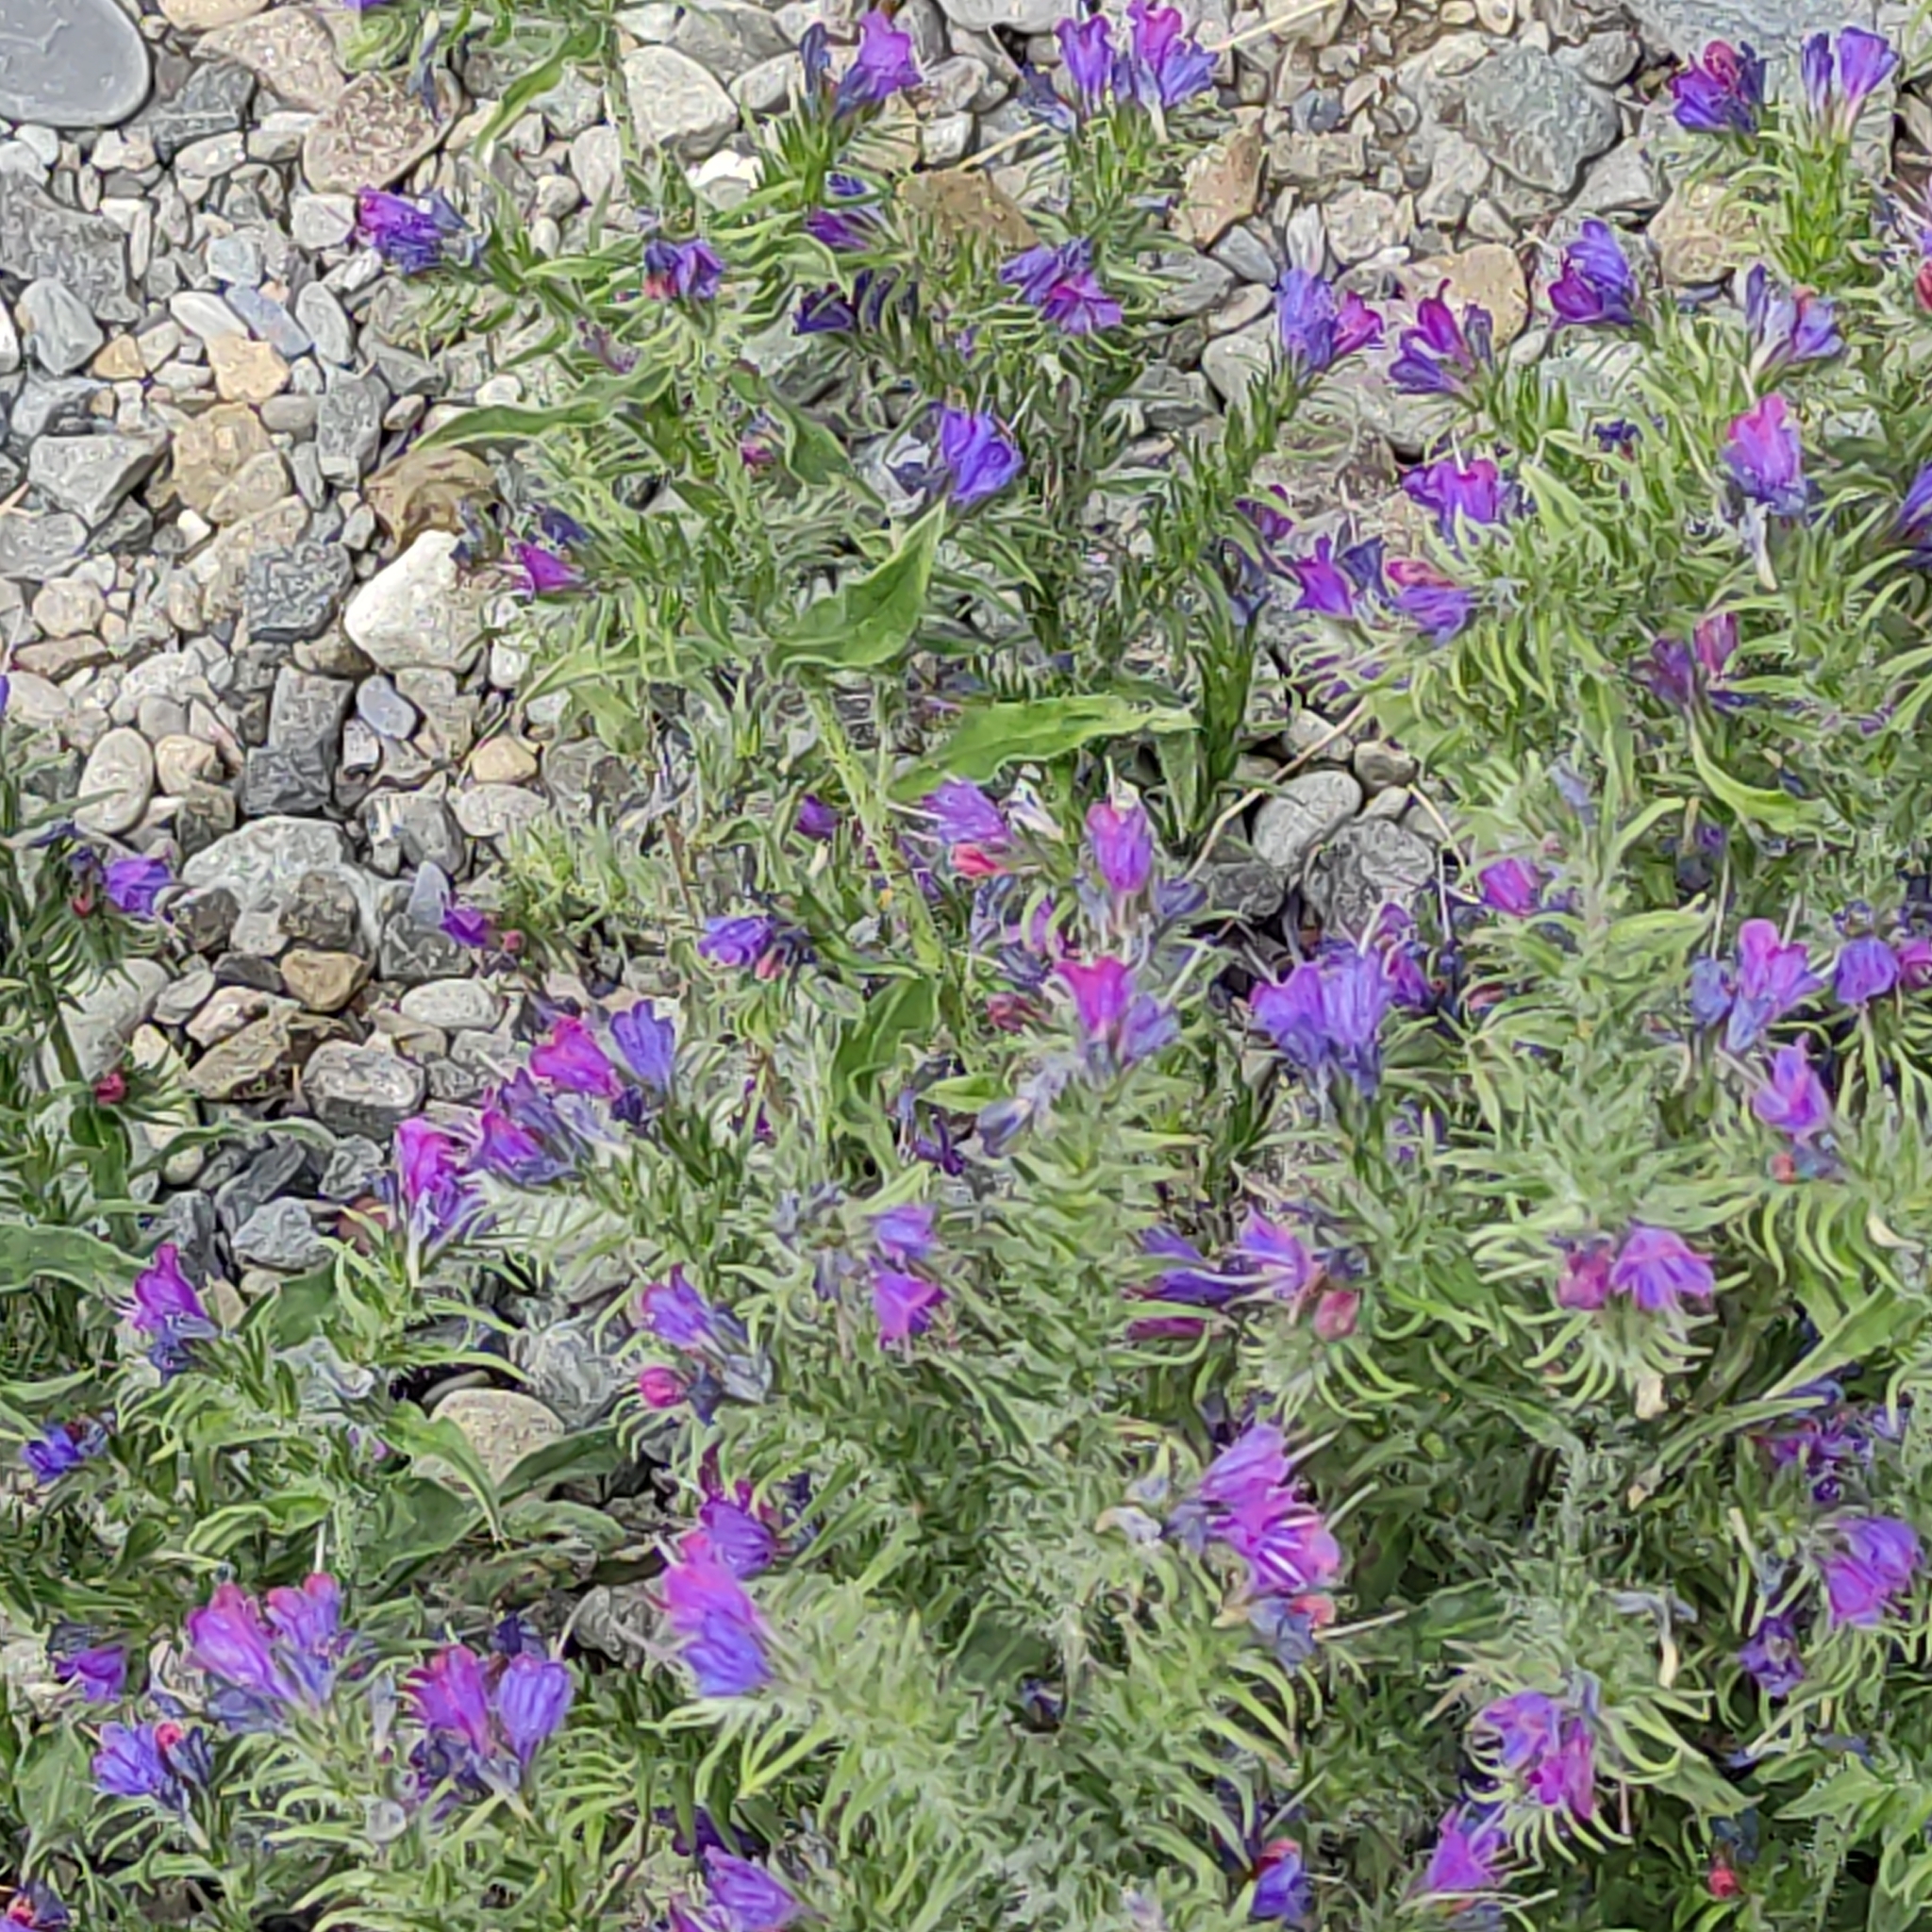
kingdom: Plantae
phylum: Tracheophyta
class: Magnoliopsida
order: Boraginales
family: Boraginaceae
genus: Echium
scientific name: Echium vulgare
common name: Common viper's bugloss
